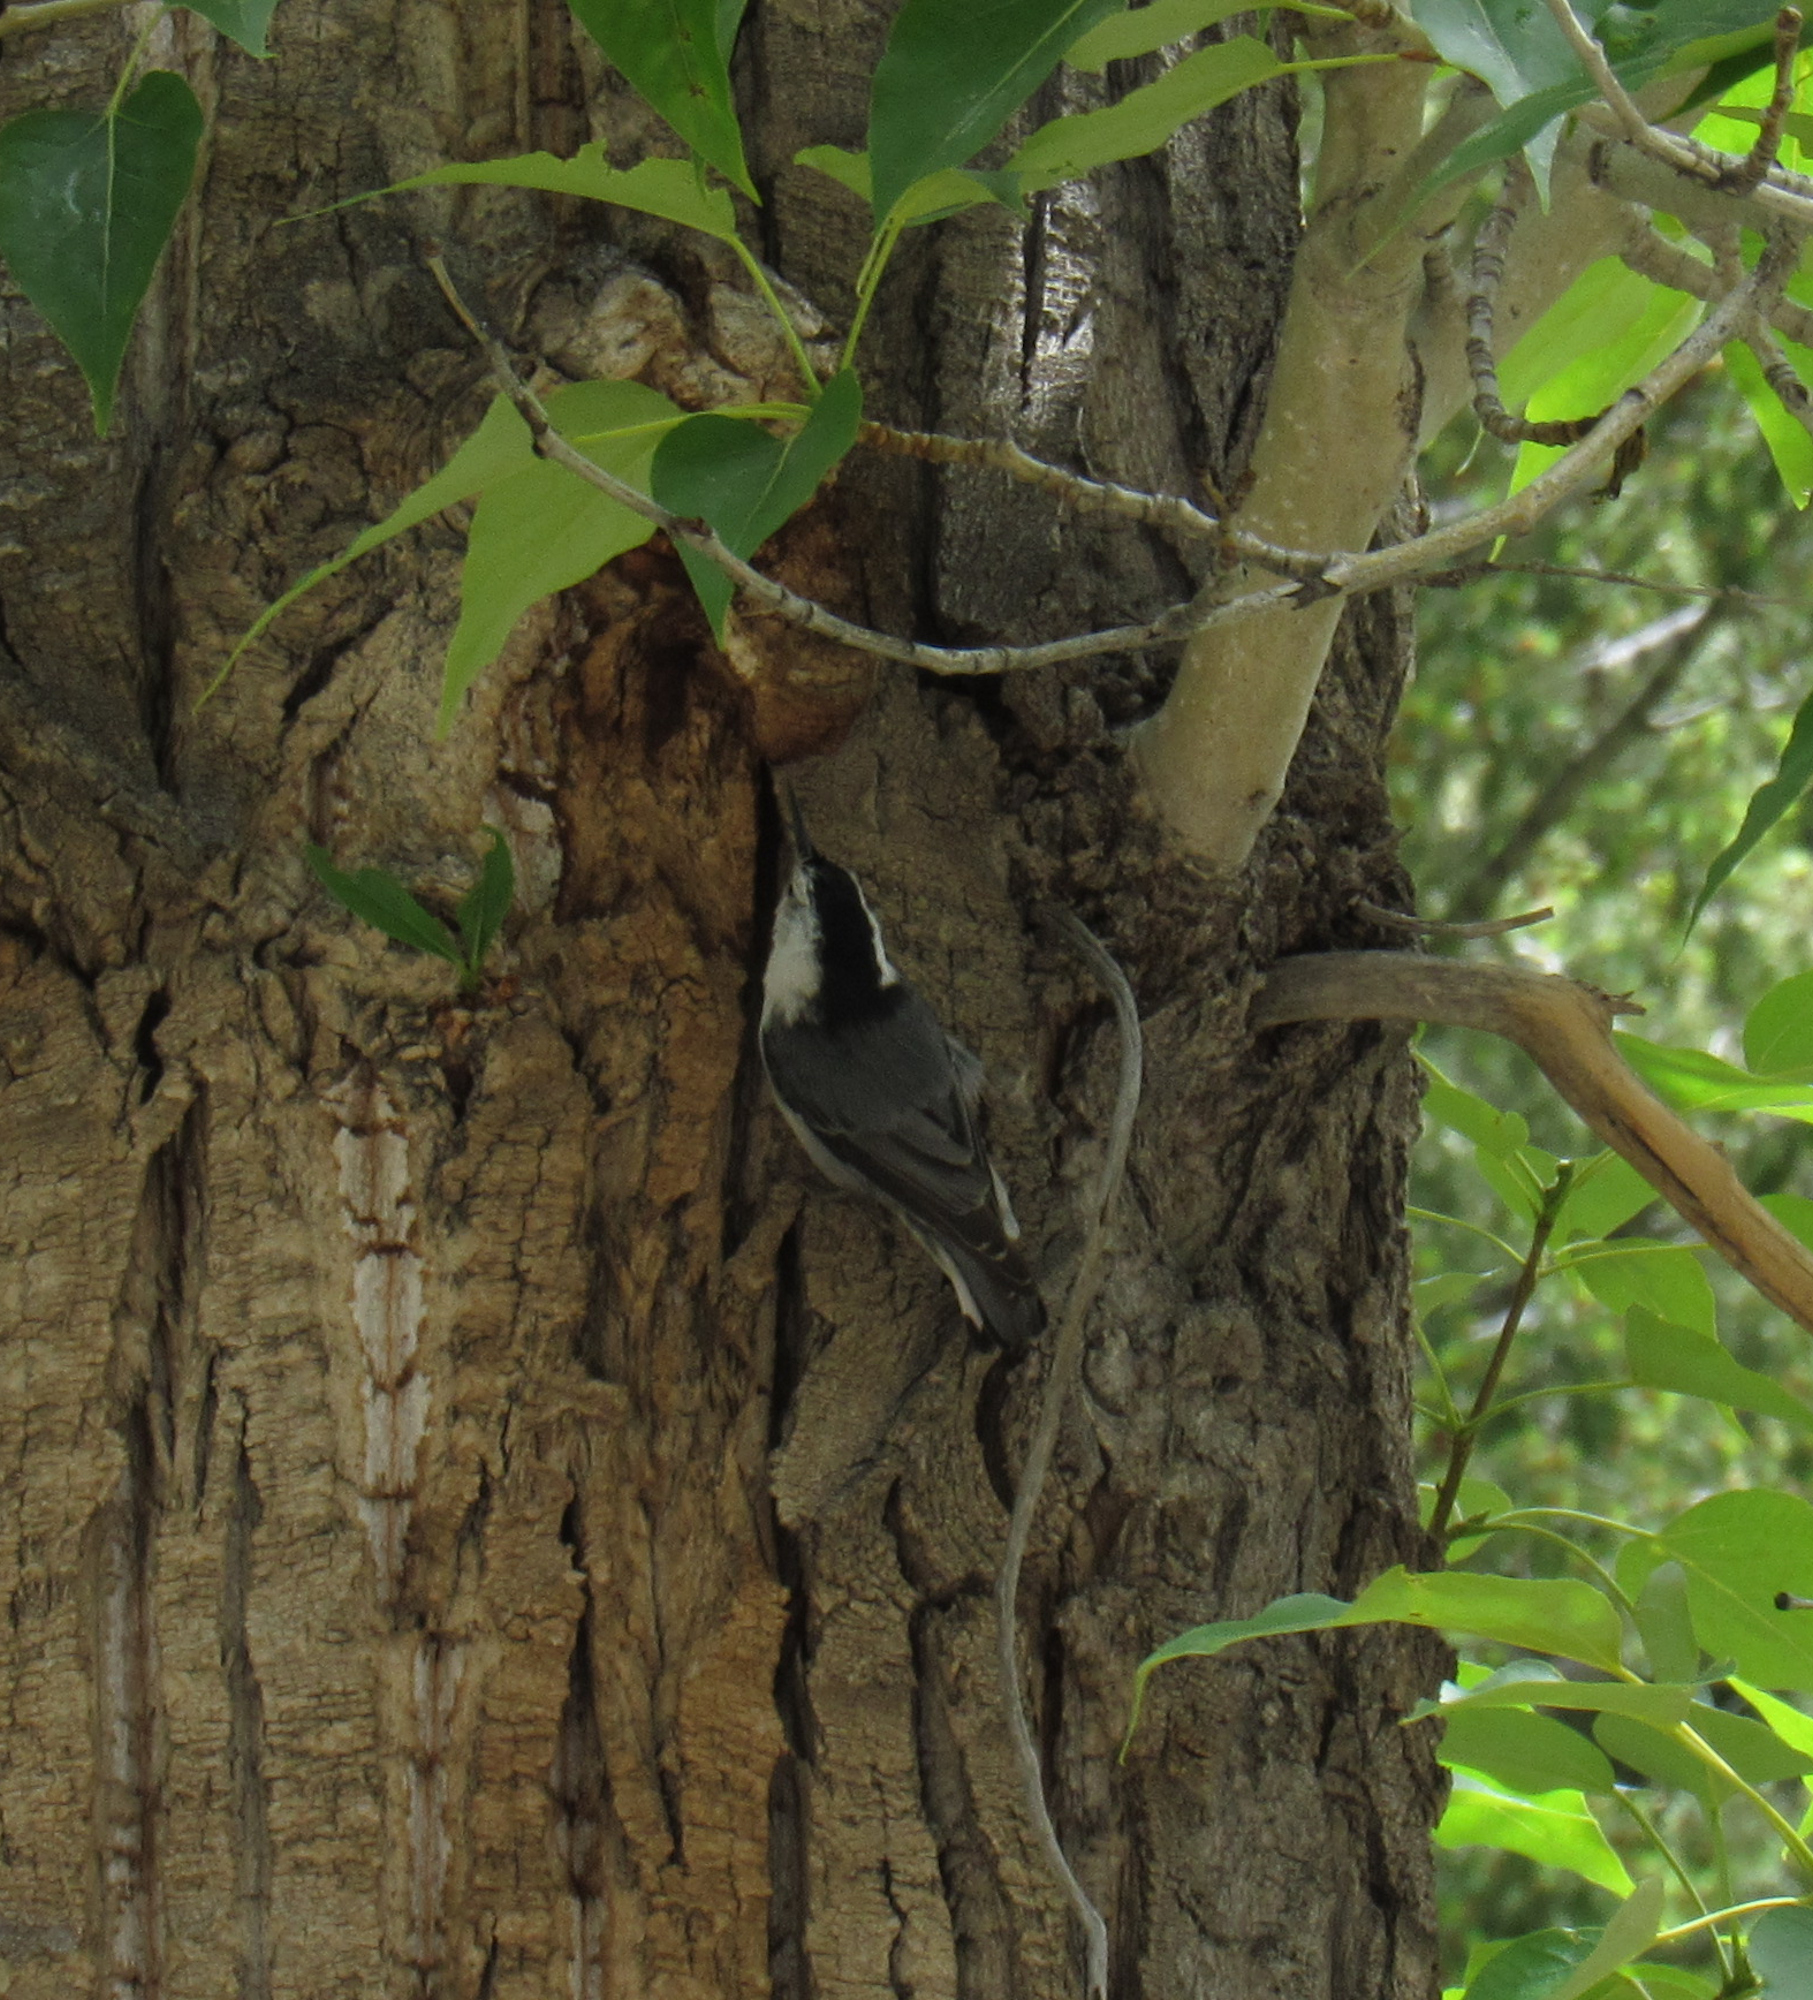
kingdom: Animalia
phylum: Chordata
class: Aves
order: Passeriformes
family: Sittidae
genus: Sitta
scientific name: Sitta carolinensis
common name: White-breasted nuthatch
